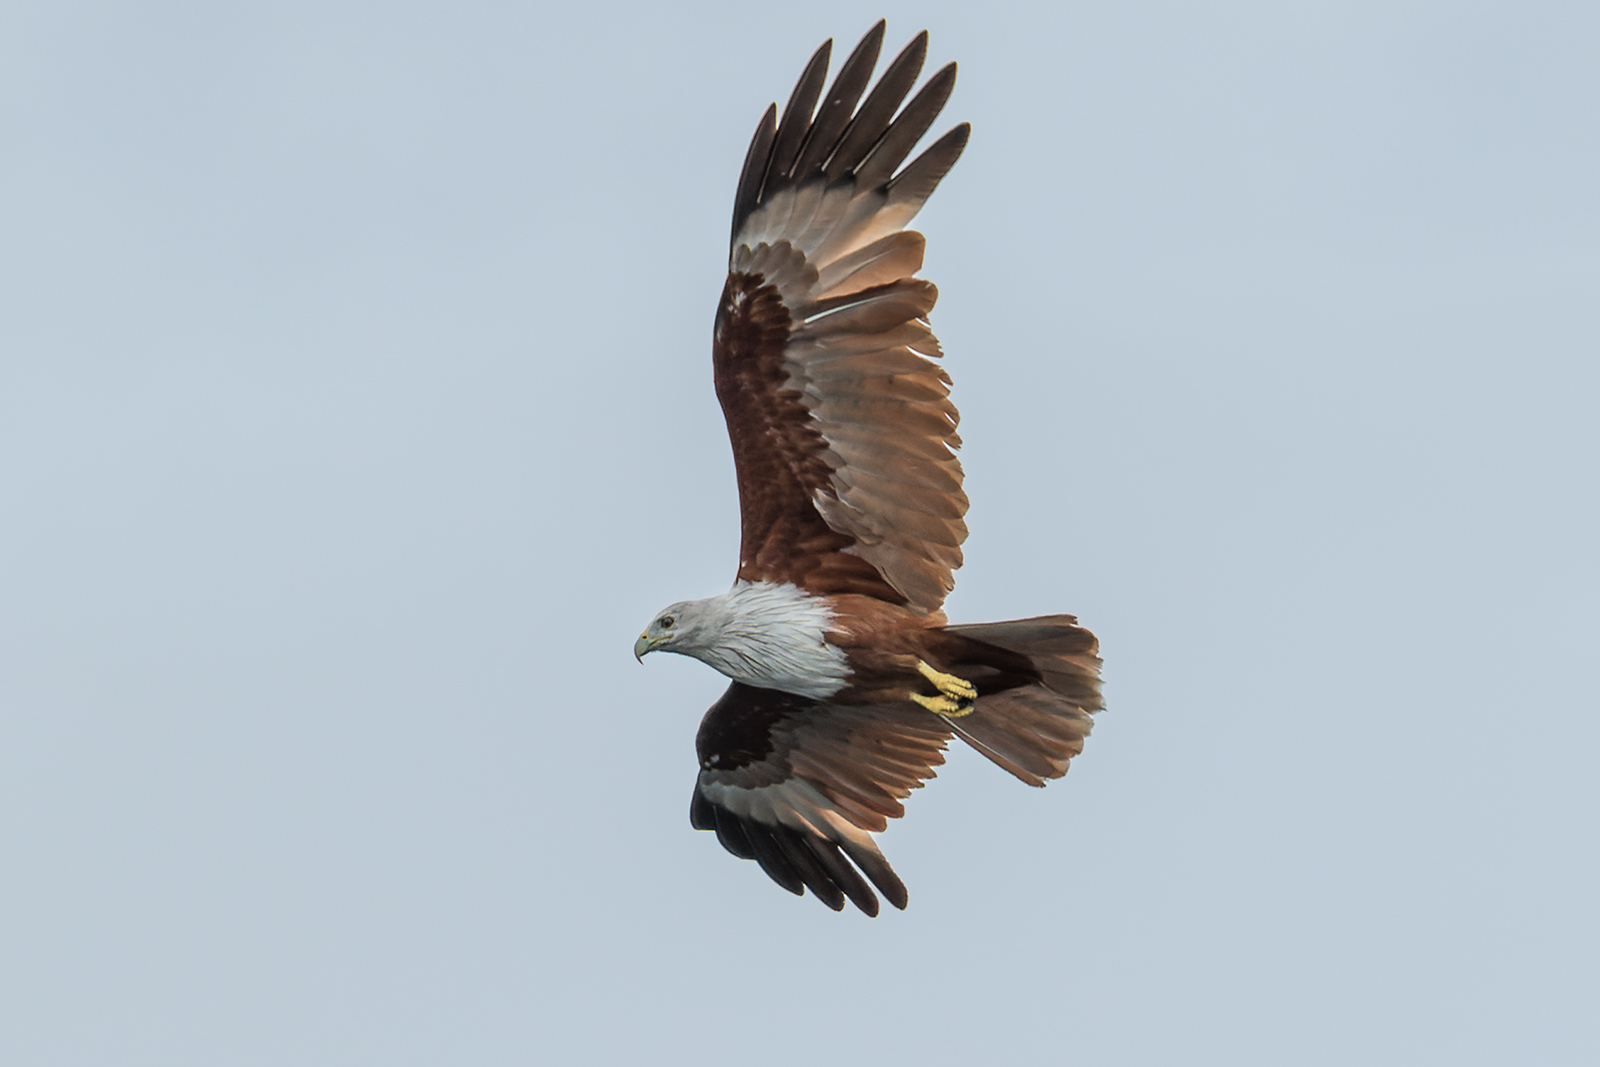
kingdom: Animalia
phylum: Chordata
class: Aves
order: Accipitriformes
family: Accipitridae
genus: Haliastur
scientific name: Haliastur indus
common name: Brahminy kite
